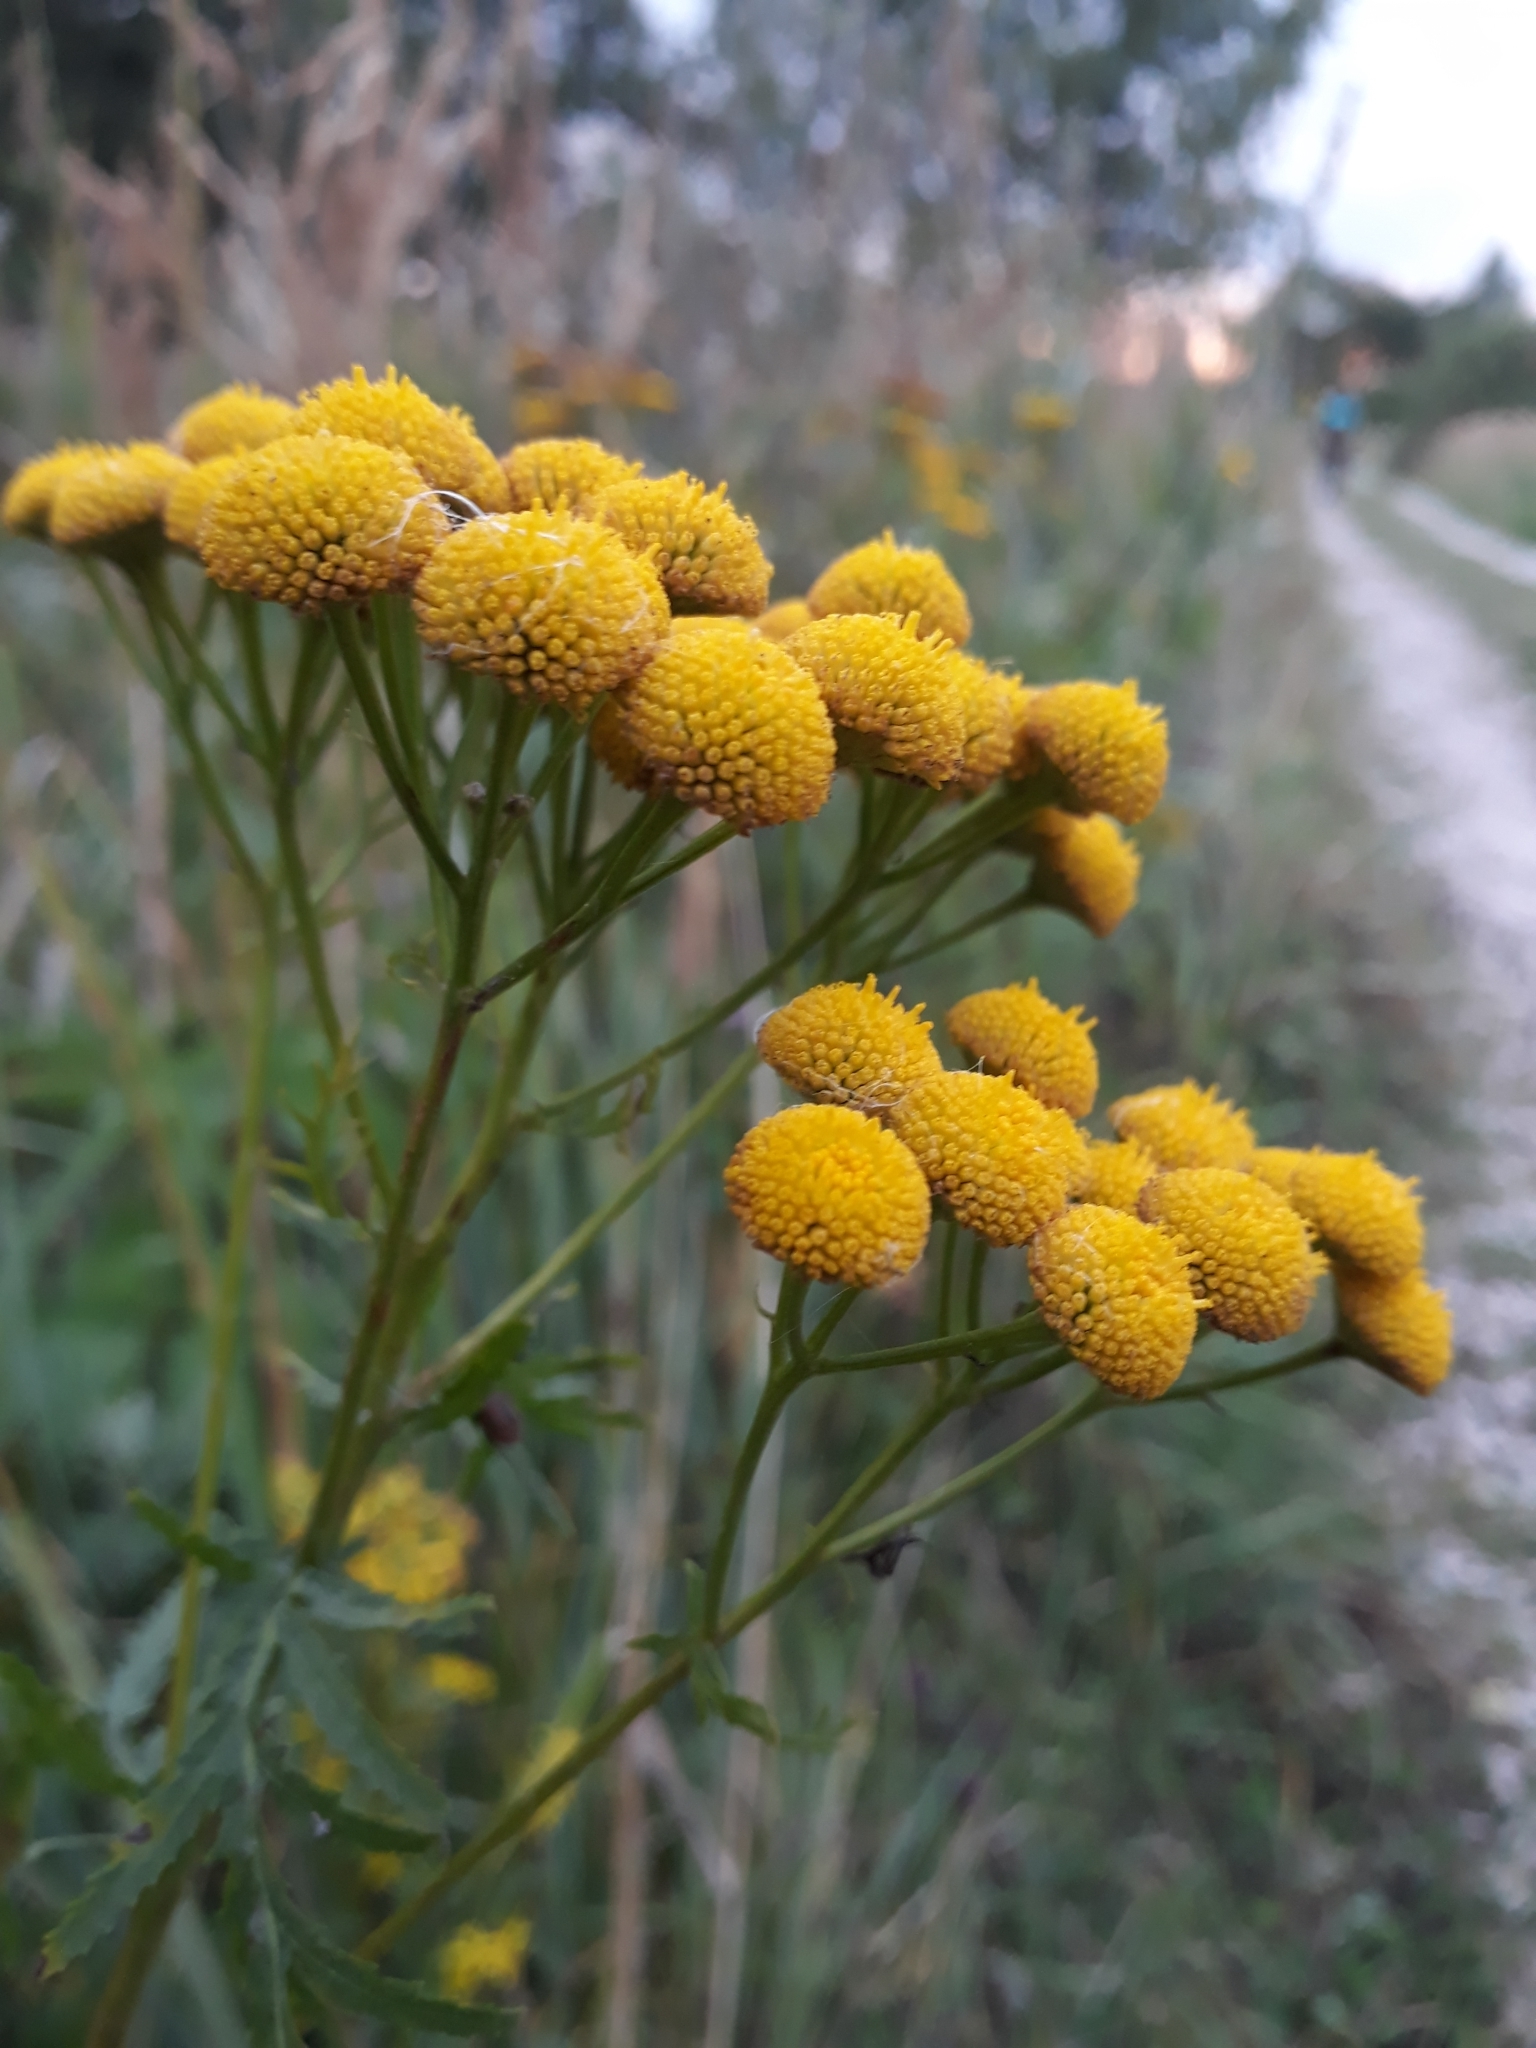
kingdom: Plantae
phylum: Tracheophyta
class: Magnoliopsida
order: Asterales
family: Asteraceae
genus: Tanacetum
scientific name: Tanacetum vulgare
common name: Common tansy
